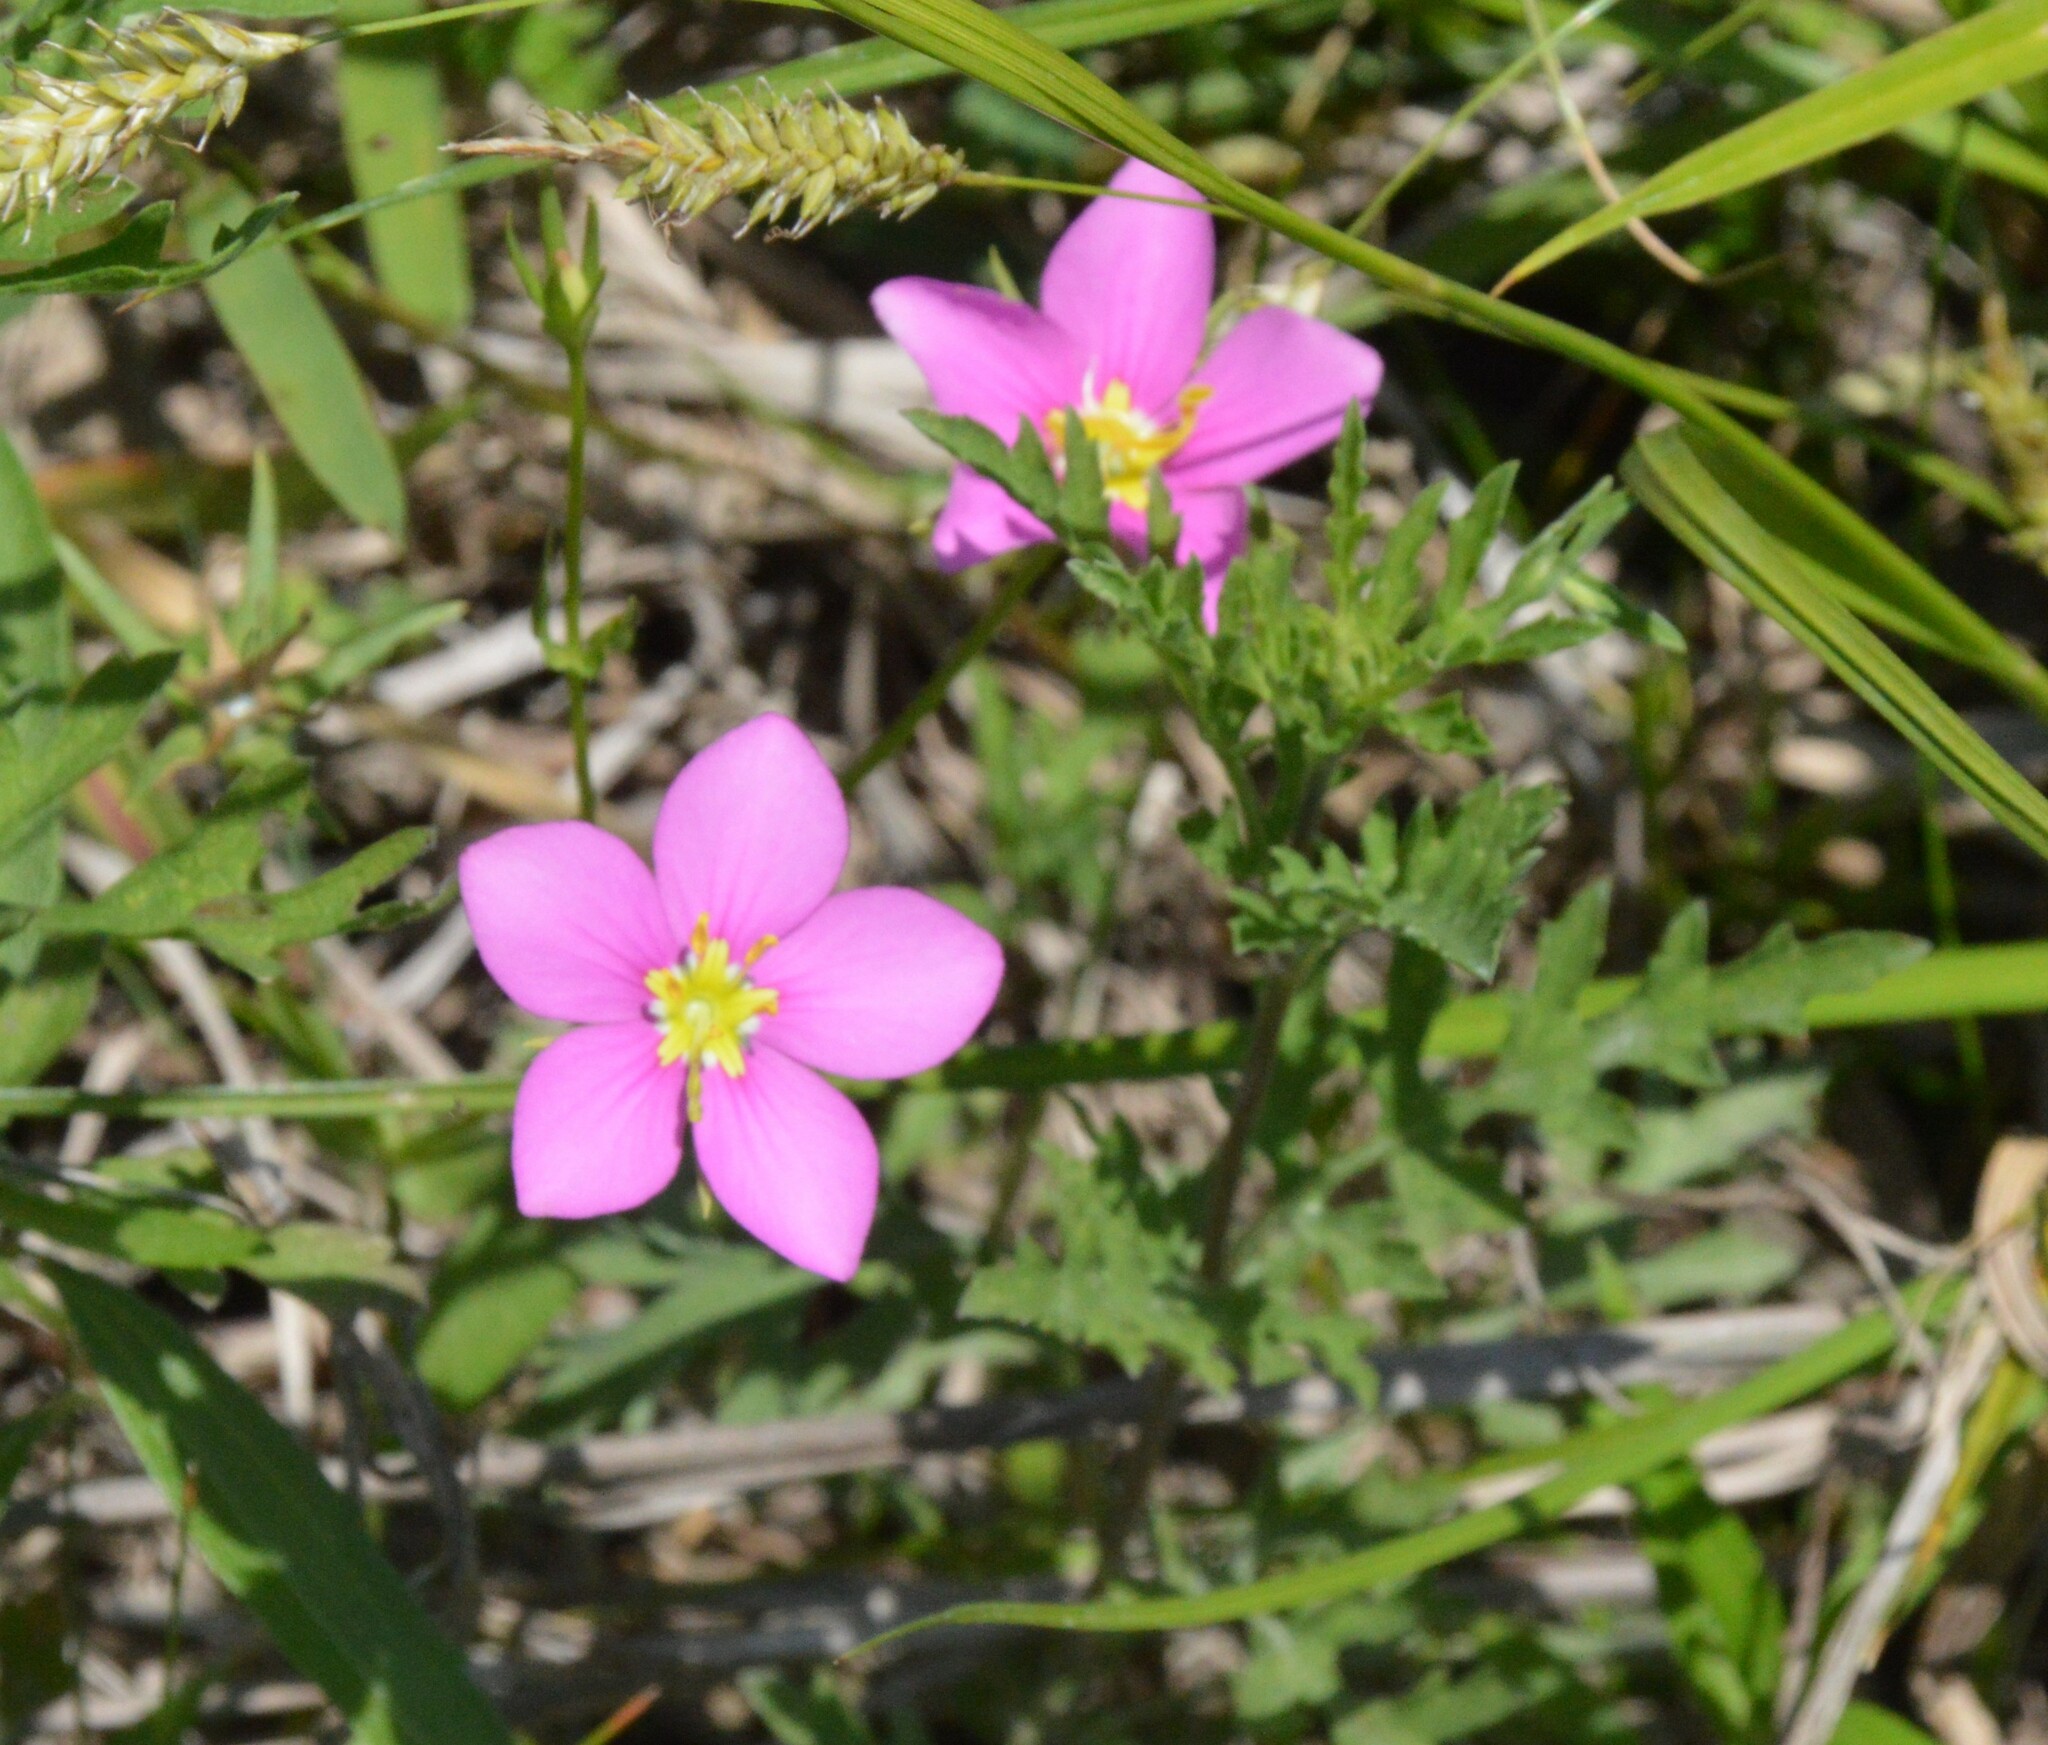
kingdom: Plantae
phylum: Tracheophyta
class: Magnoliopsida
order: Gentianales
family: Gentianaceae
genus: Sabatia
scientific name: Sabatia campestris
